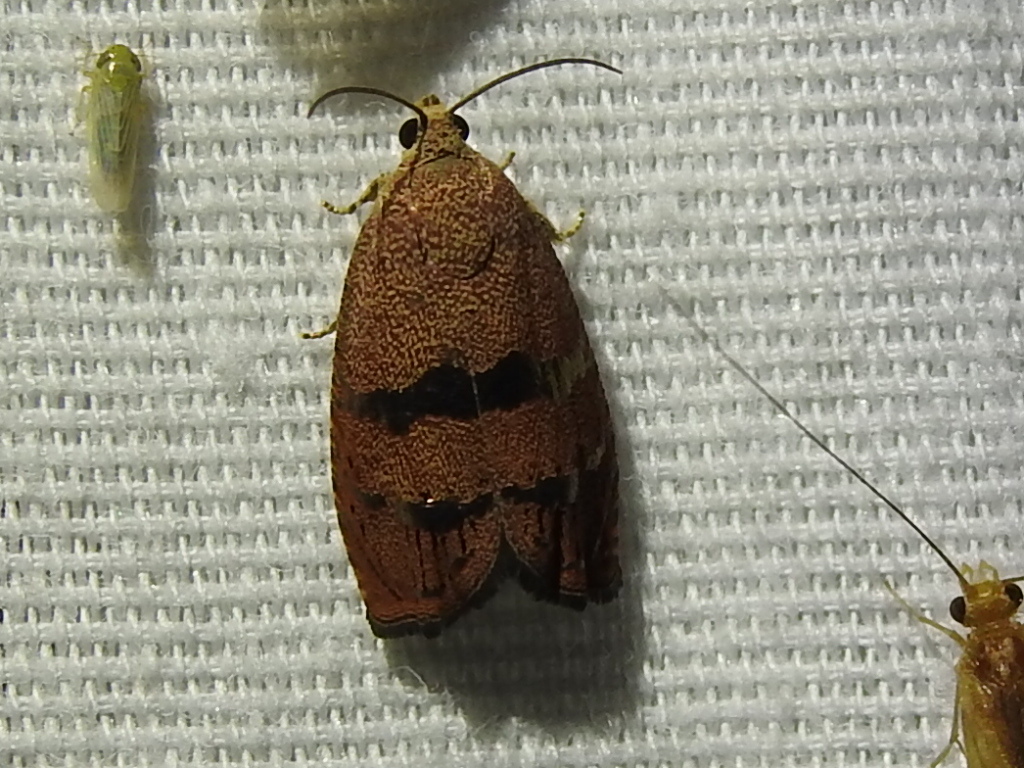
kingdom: Animalia
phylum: Arthropoda
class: Insecta
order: Lepidoptera
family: Tortricidae
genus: Cydia
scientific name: Cydia latiferreana
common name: Filbertworm moth
